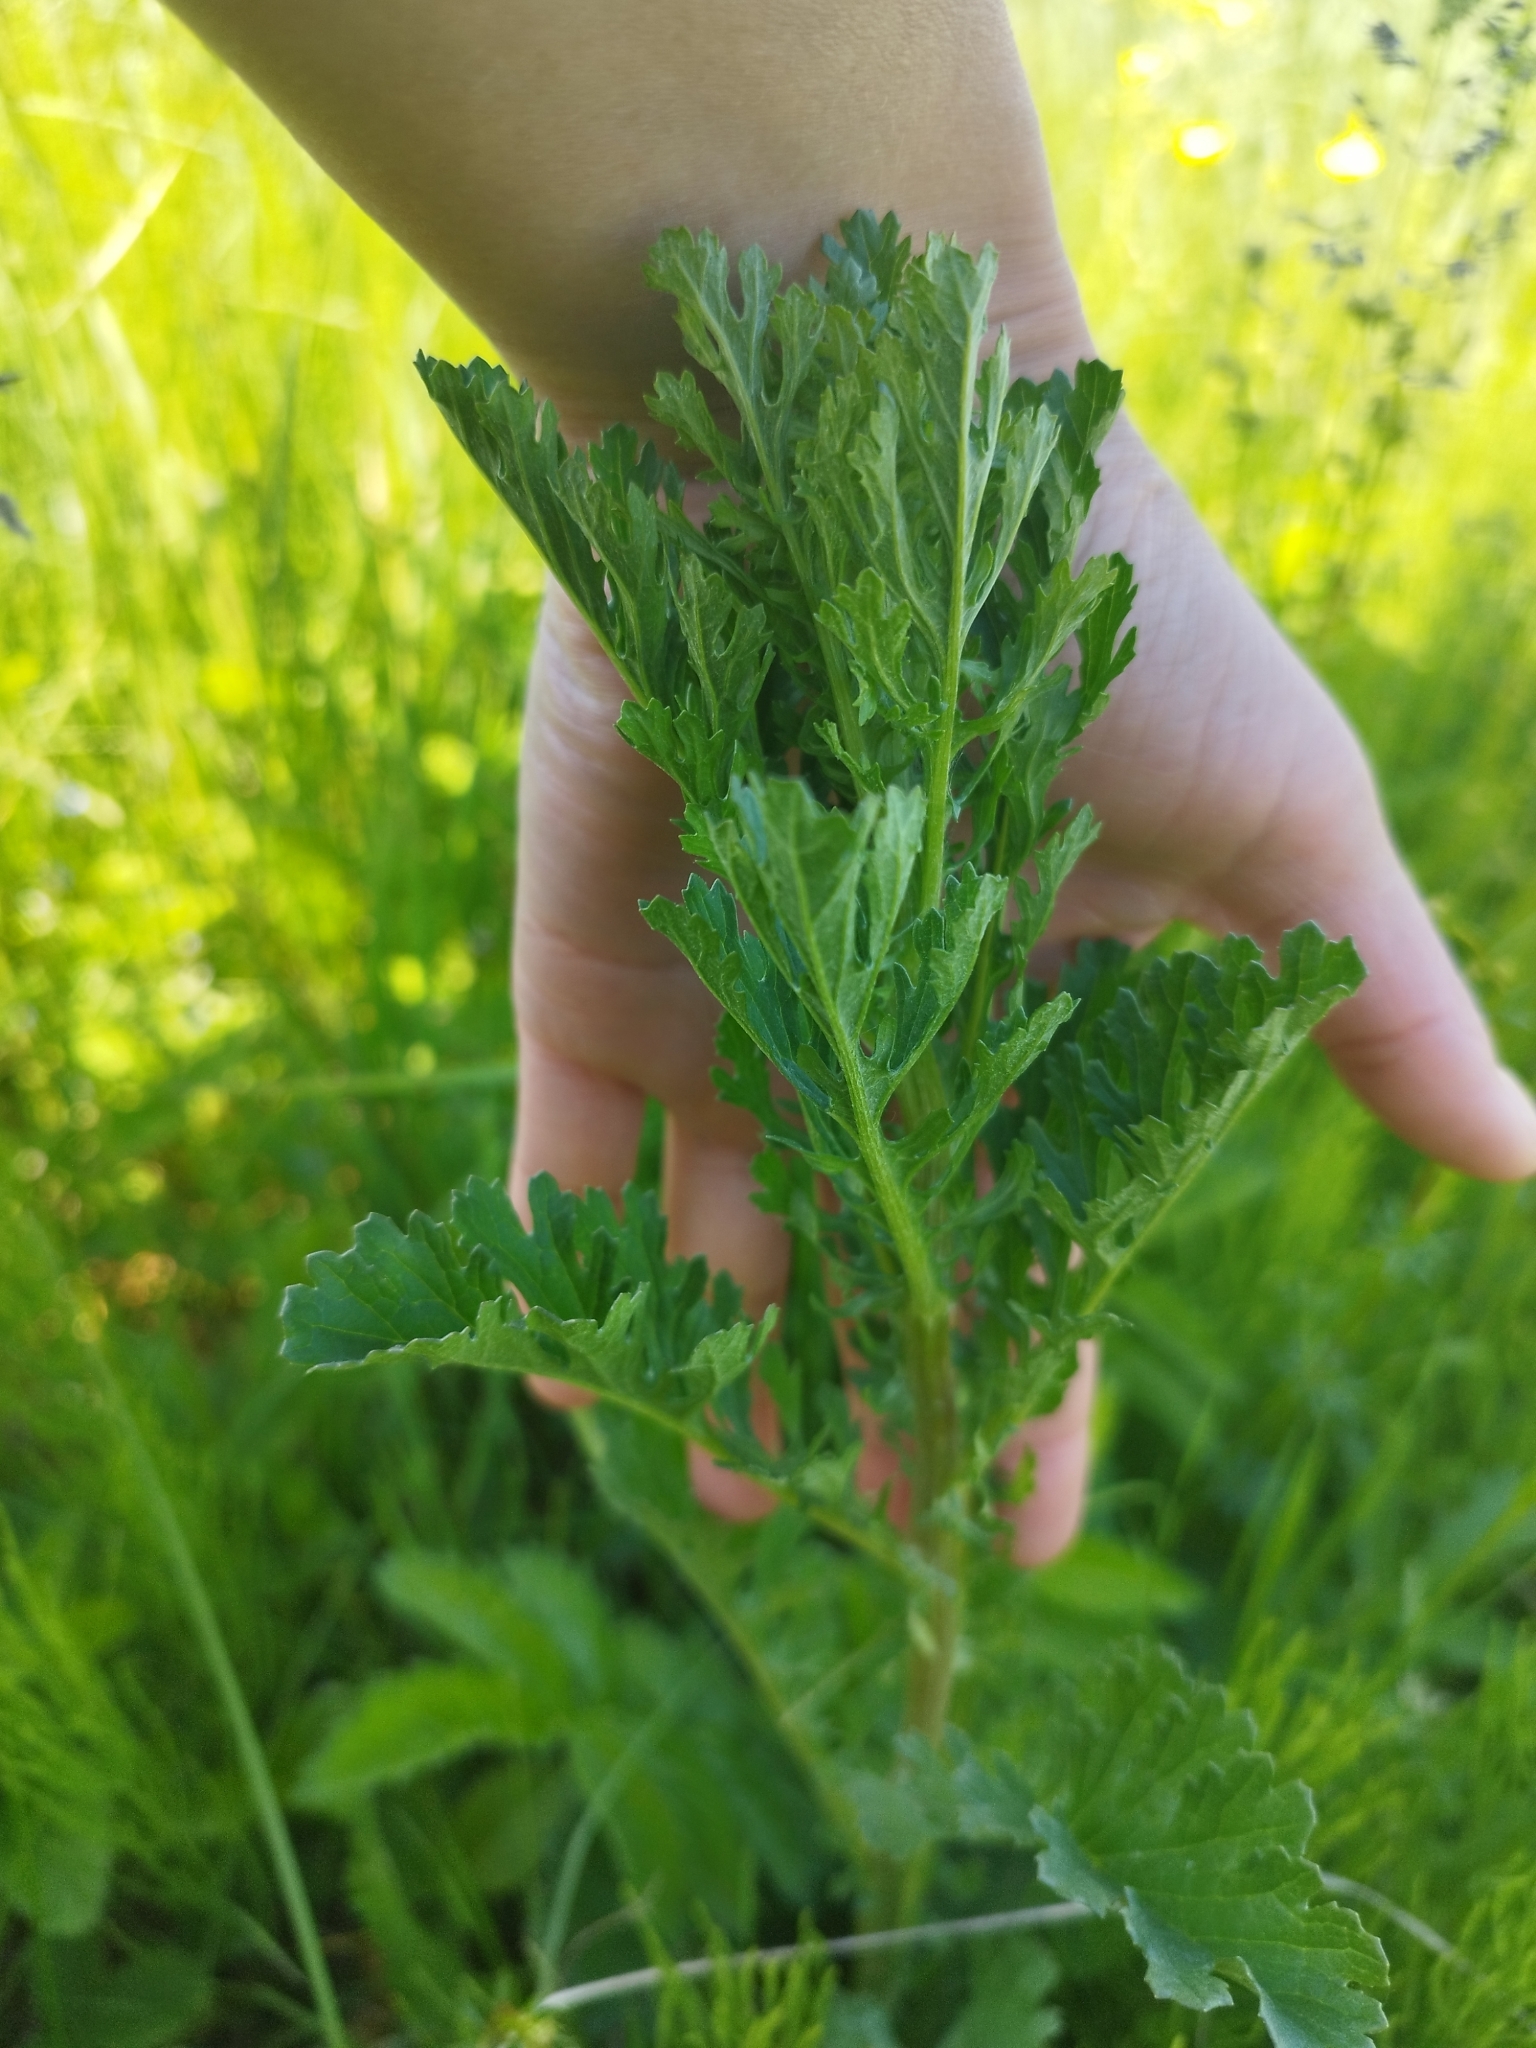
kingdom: Plantae
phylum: Tracheophyta
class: Magnoliopsida
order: Asterales
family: Asteraceae
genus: Jacobaea
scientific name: Jacobaea vulgaris
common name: Stinking willie
